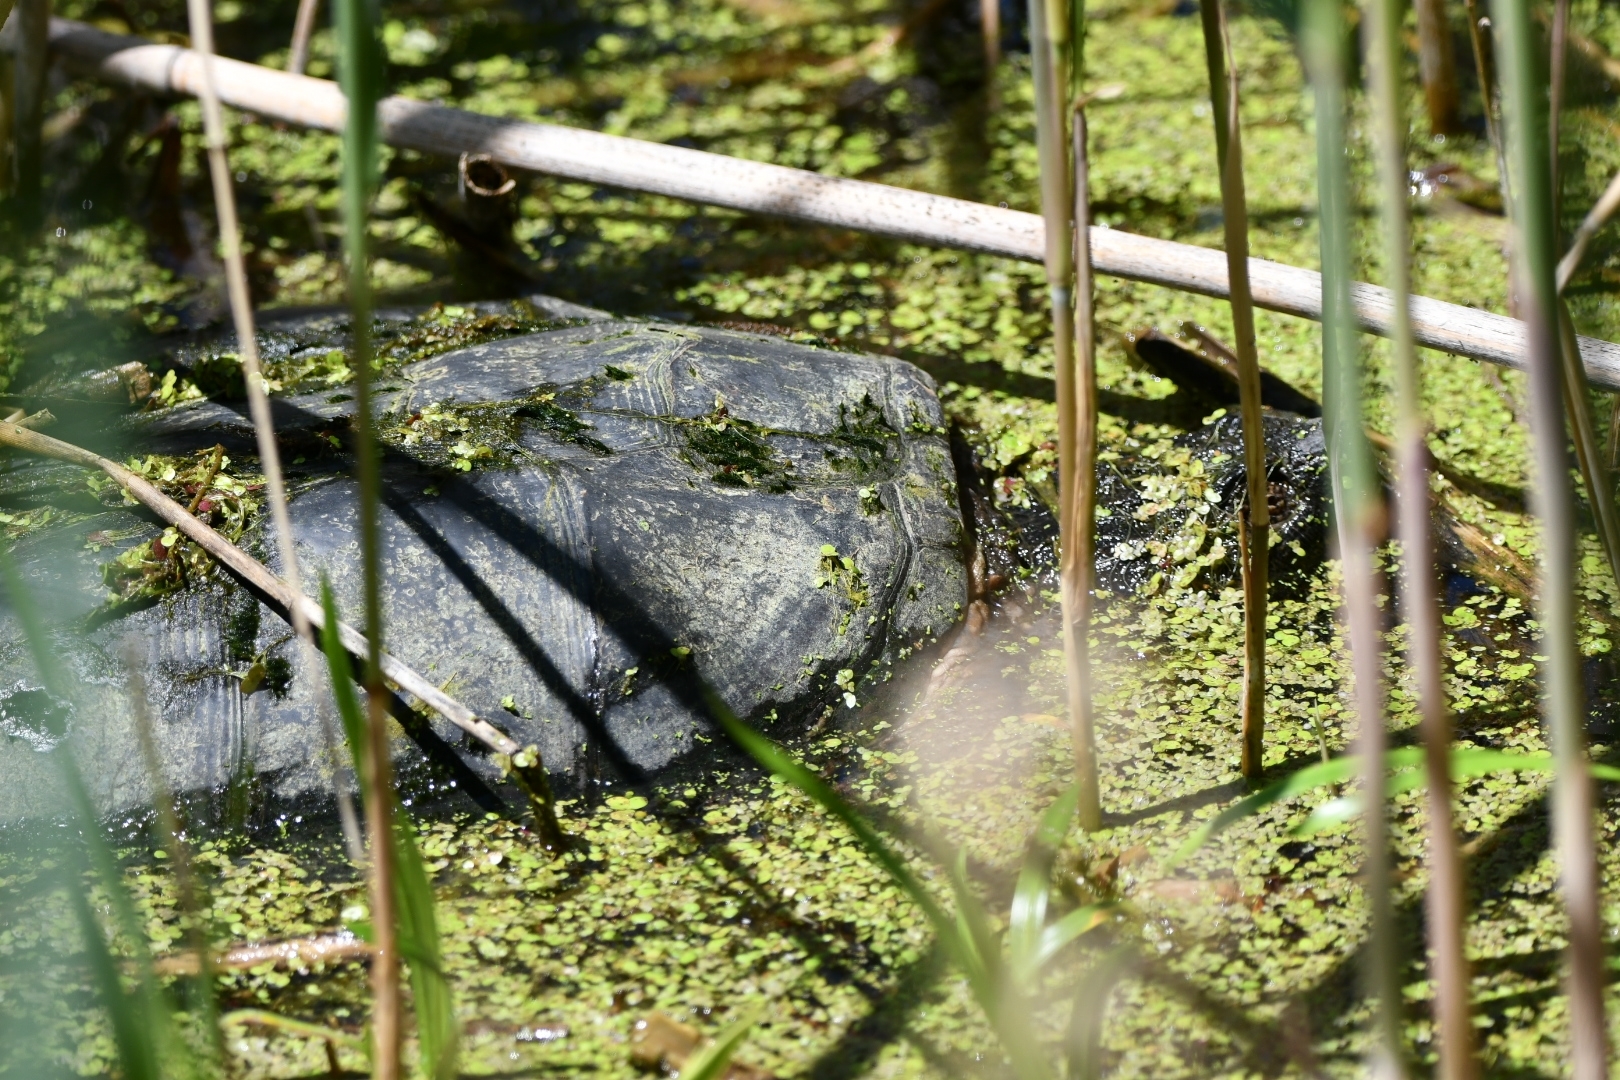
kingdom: Animalia
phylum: Chordata
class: Testudines
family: Chelydridae
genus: Chelydra
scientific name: Chelydra serpentina
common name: Common snapping turtle
